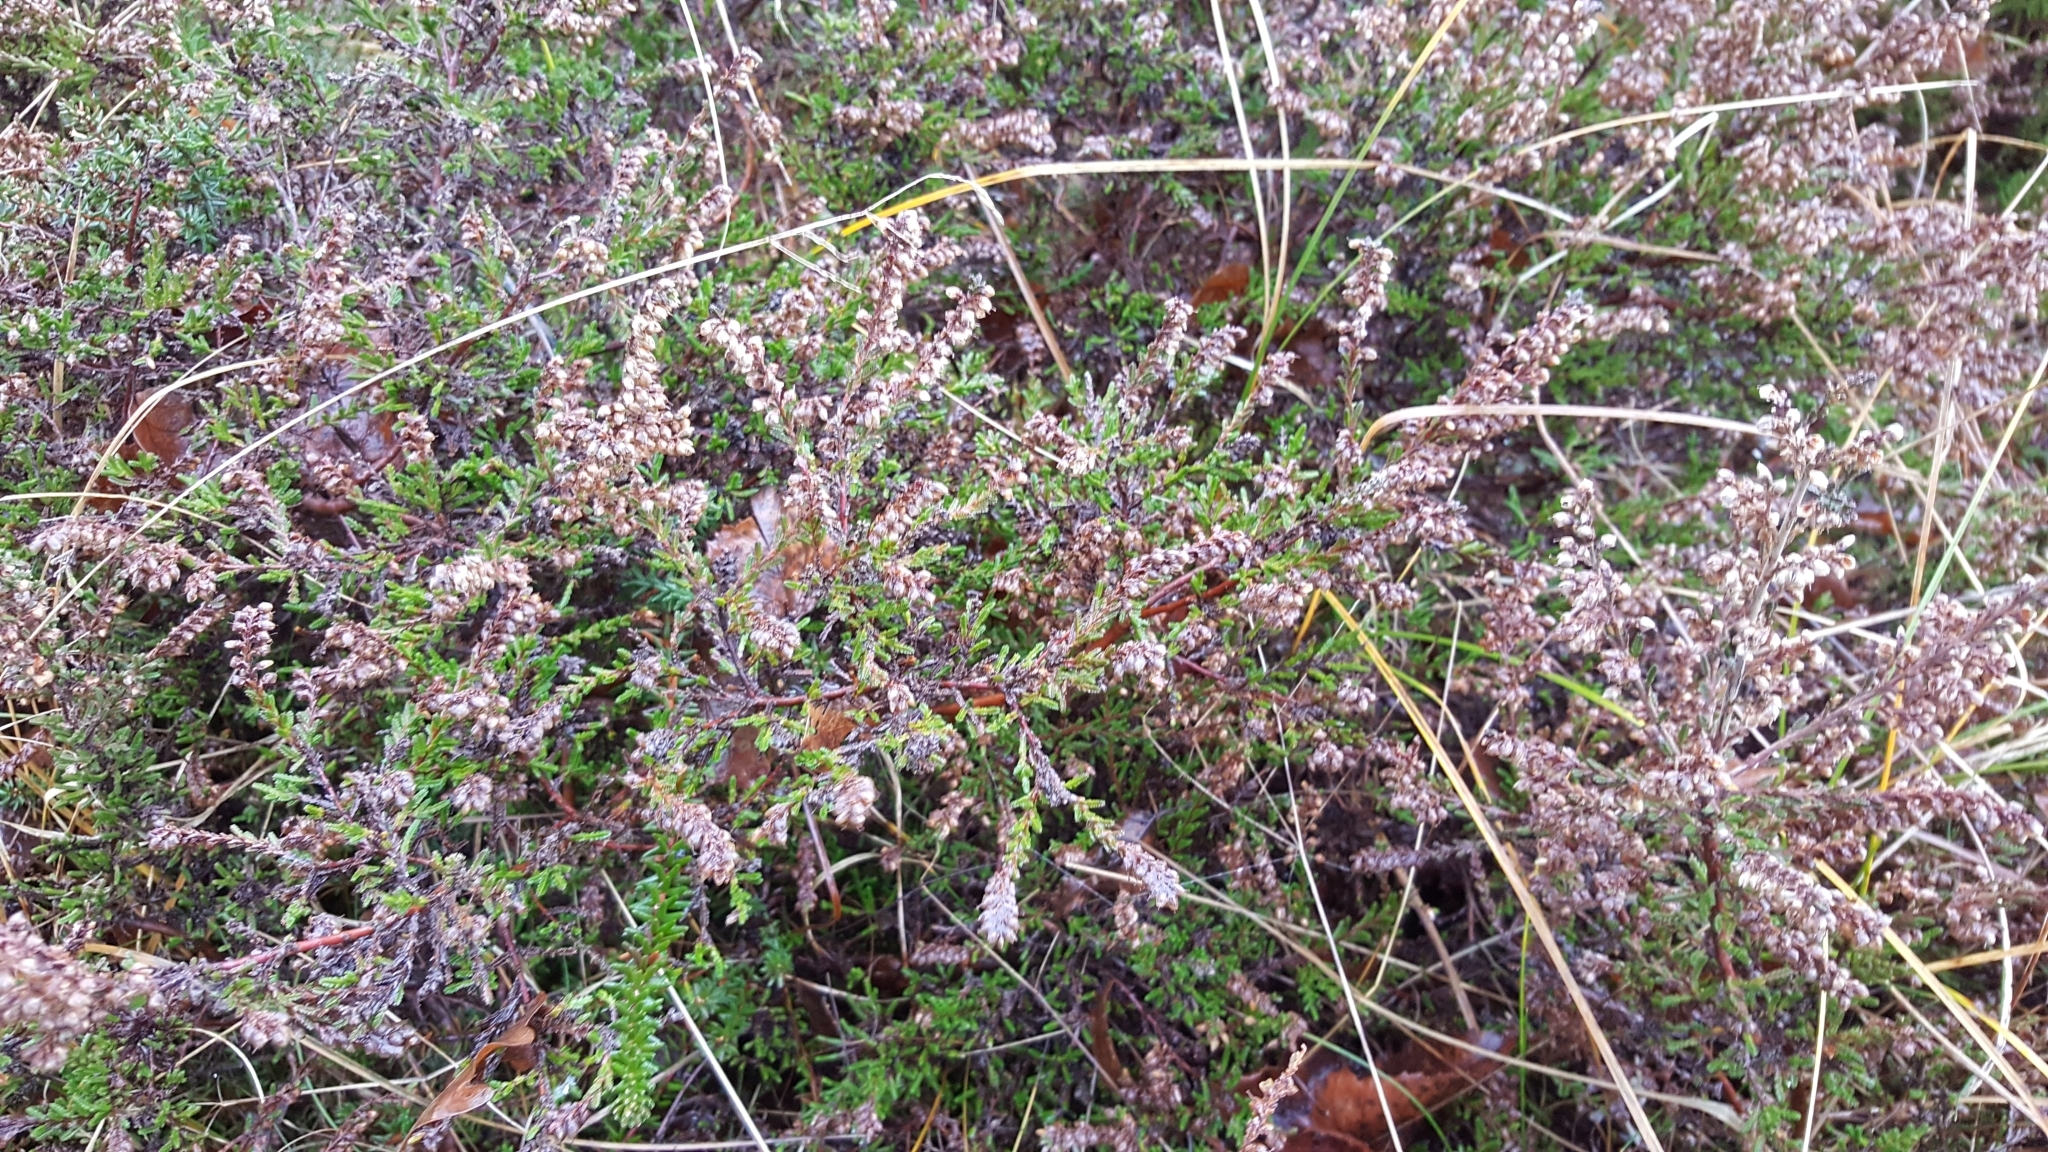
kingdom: Plantae
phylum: Tracheophyta
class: Magnoliopsida
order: Ericales
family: Ericaceae
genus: Calluna
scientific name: Calluna vulgaris
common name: Heather
